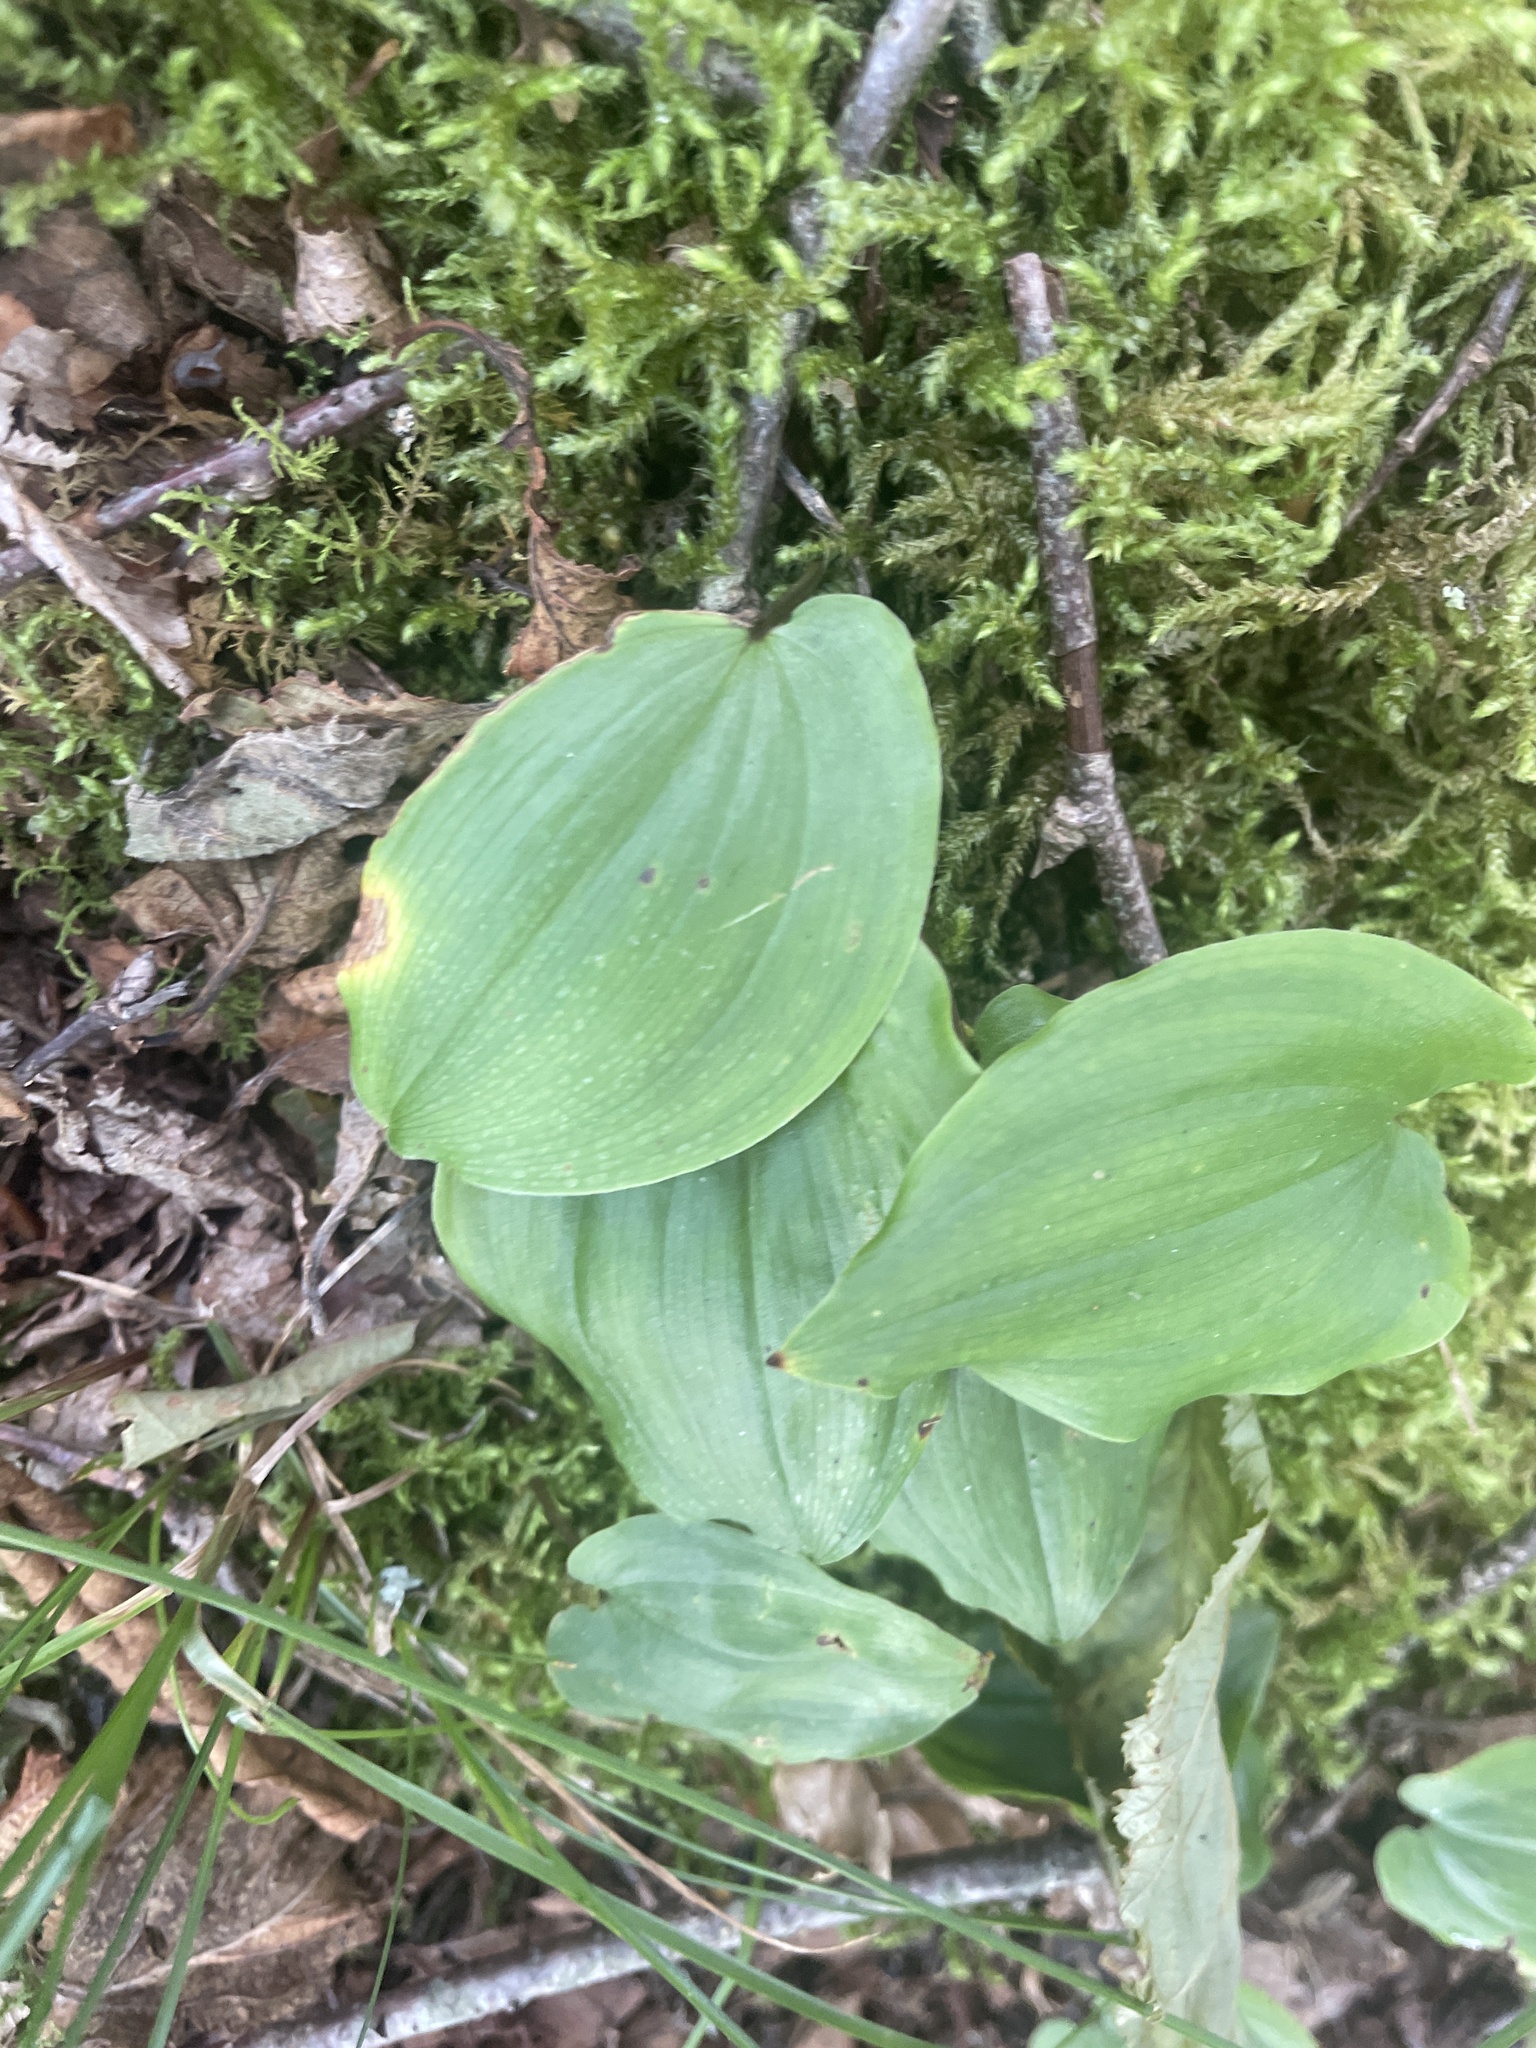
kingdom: Plantae
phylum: Tracheophyta
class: Liliopsida
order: Asparagales
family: Asparagaceae
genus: Maianthemum
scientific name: Maianthemum canadense
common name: False lily-of-the-valley
